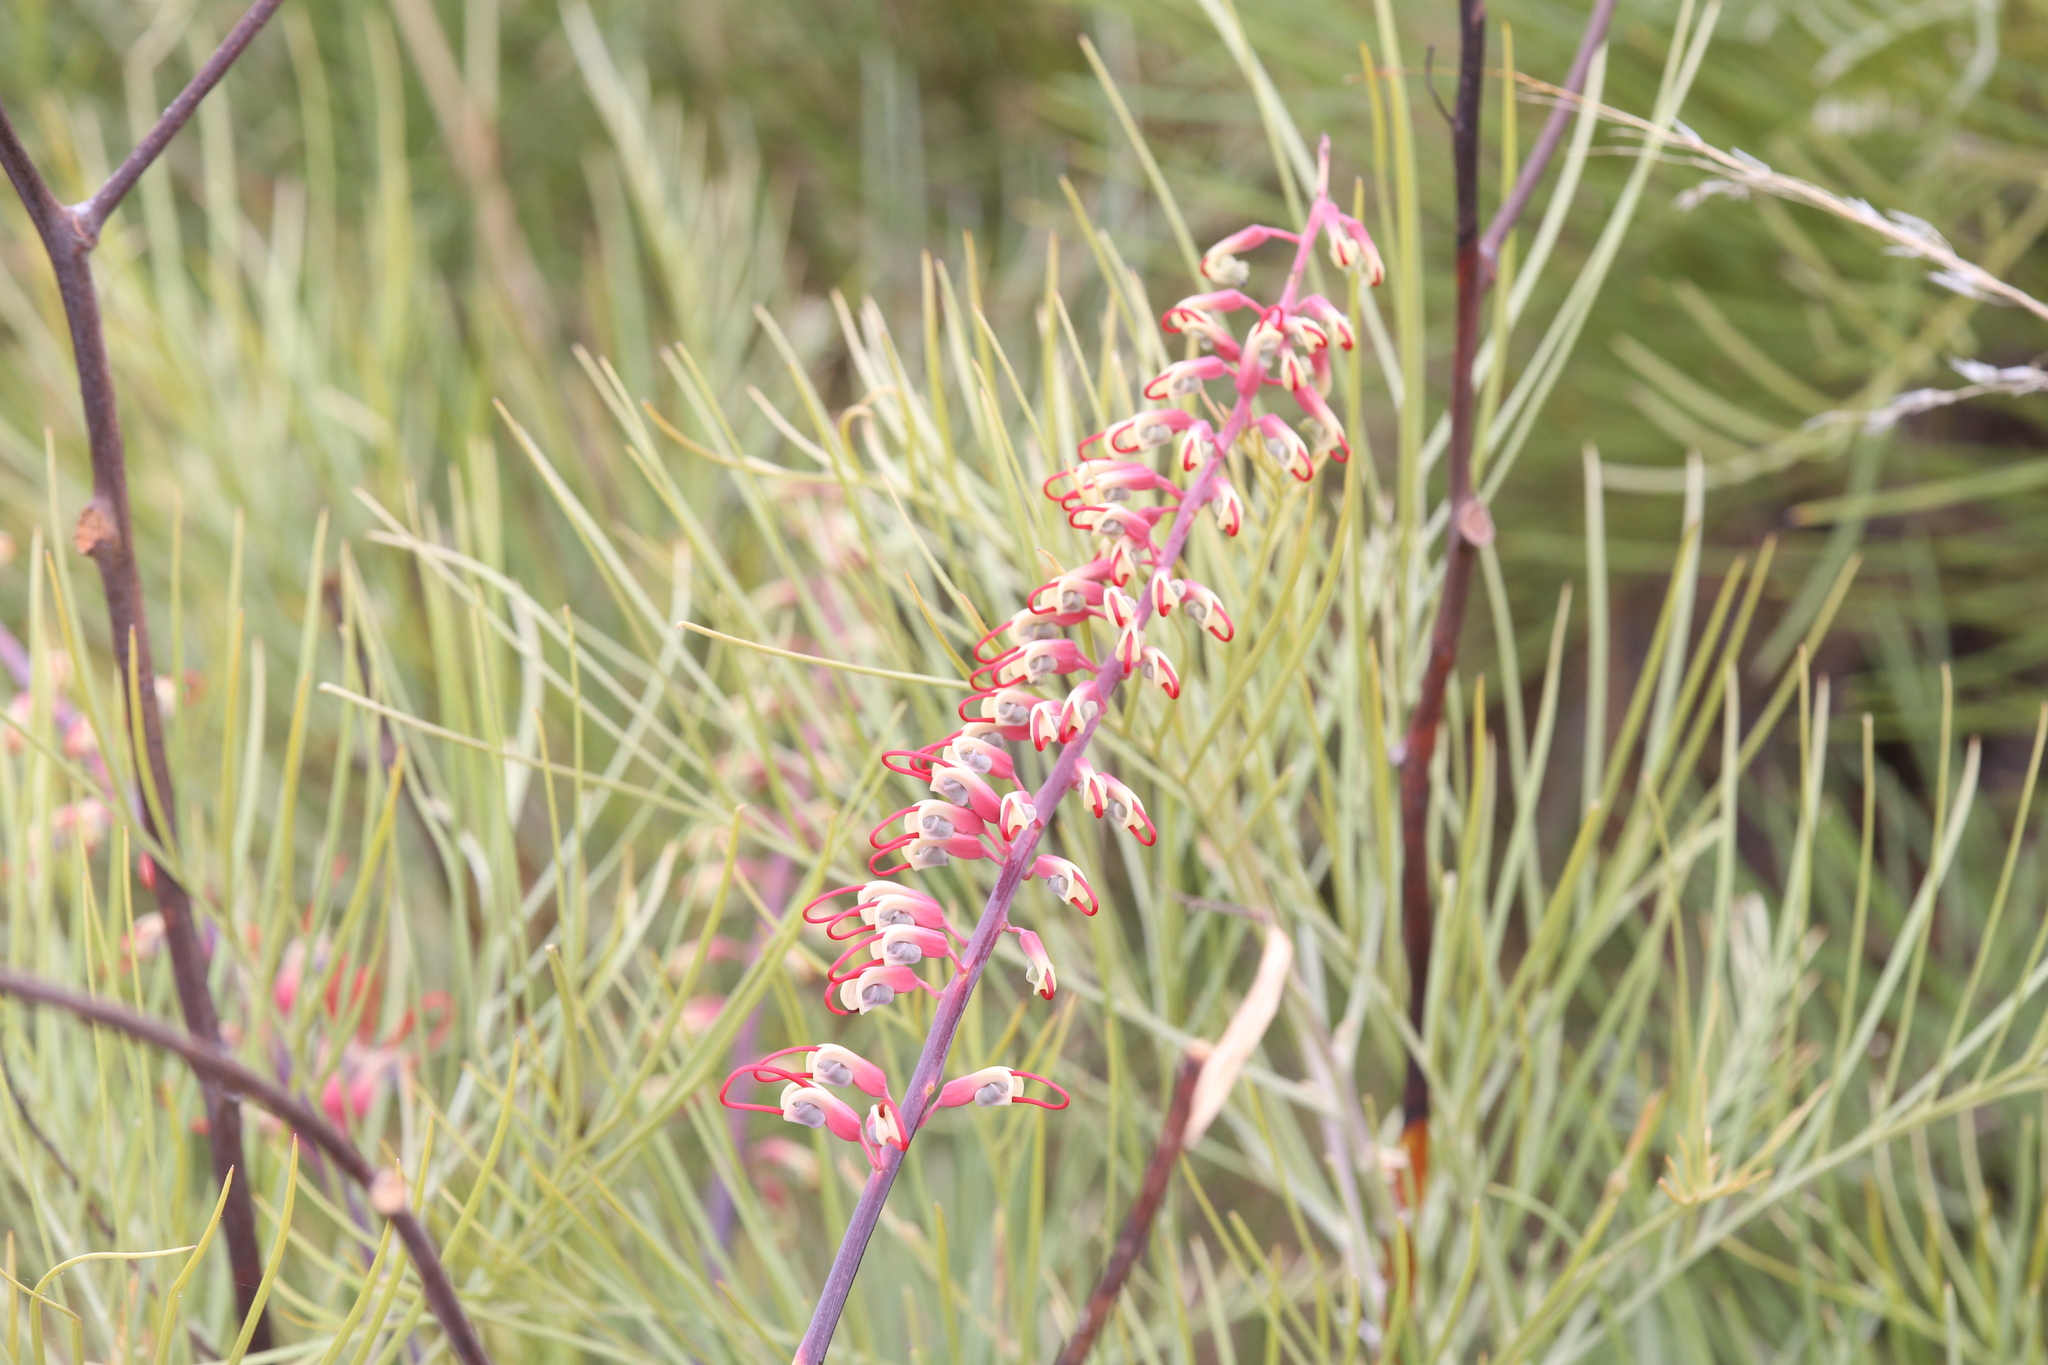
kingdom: Plantae
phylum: Tracheophyta
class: Magnoliopsida
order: Proteales
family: Proteaceae
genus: Grevillea
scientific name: Grevillea dryandri
